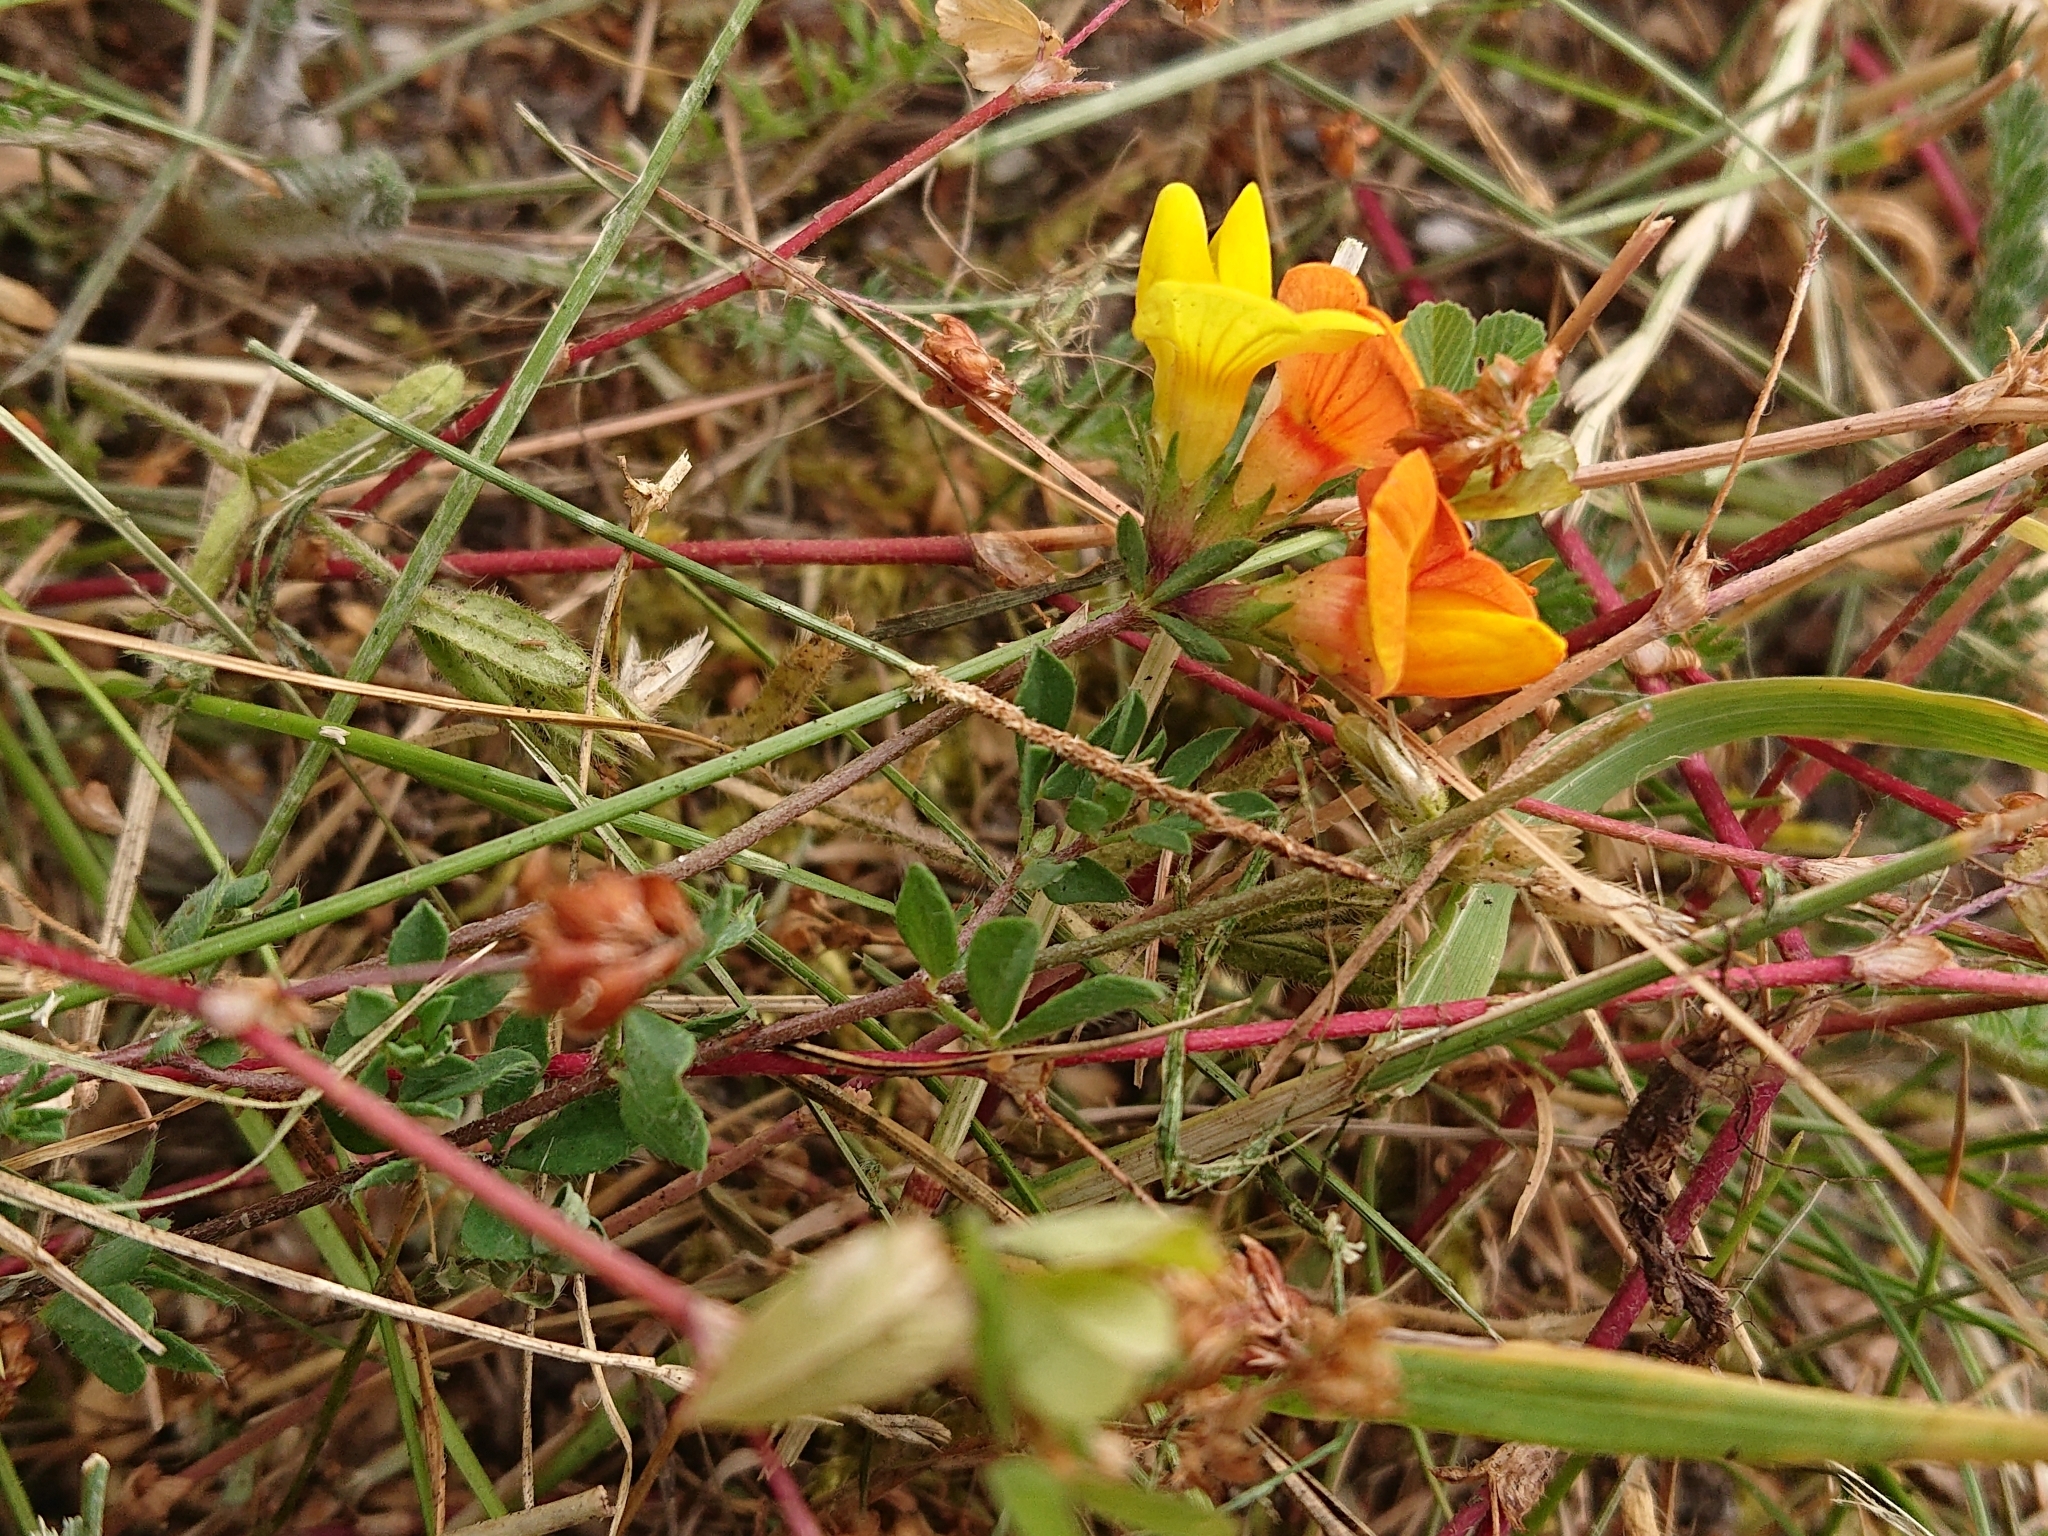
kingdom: Plantae
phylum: Tracheophyta
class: Magnoliopsida
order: Fabales
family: Fabaceae
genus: Lotus
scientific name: Lotus corniculatus
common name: Common bird's-foot-trefoil
